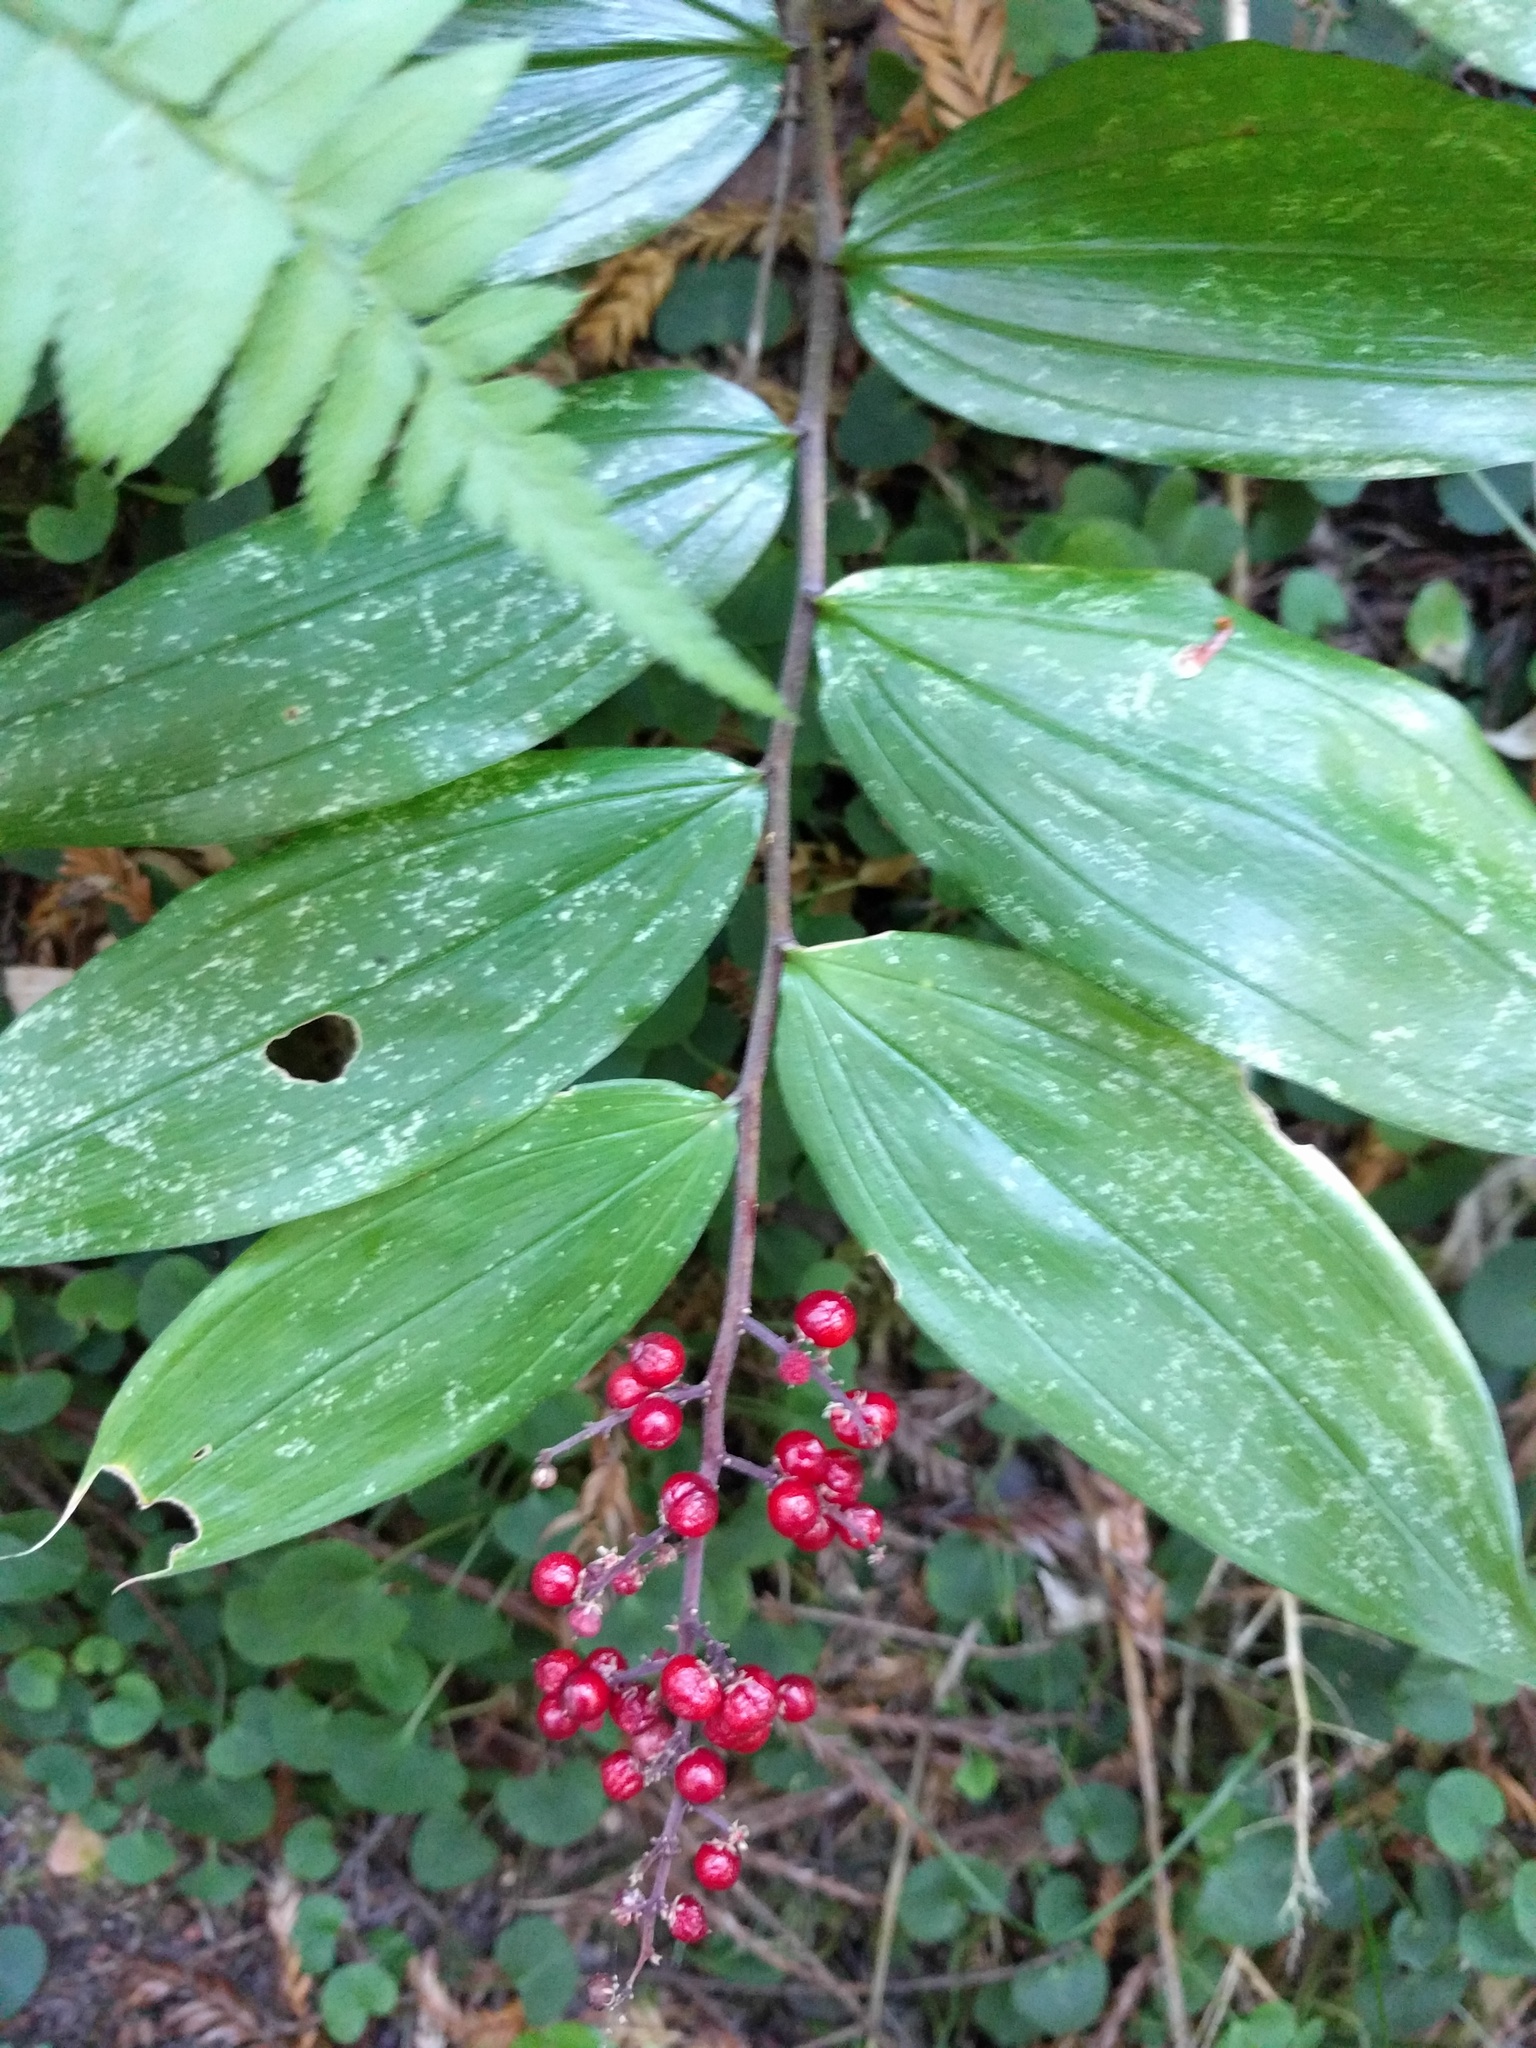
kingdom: Plantae
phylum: Tracheophyta
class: Liliopsida
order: Asparagales
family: Asparagaceae
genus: Maianthemum
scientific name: Maianthemum racemosum
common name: False spikenard
